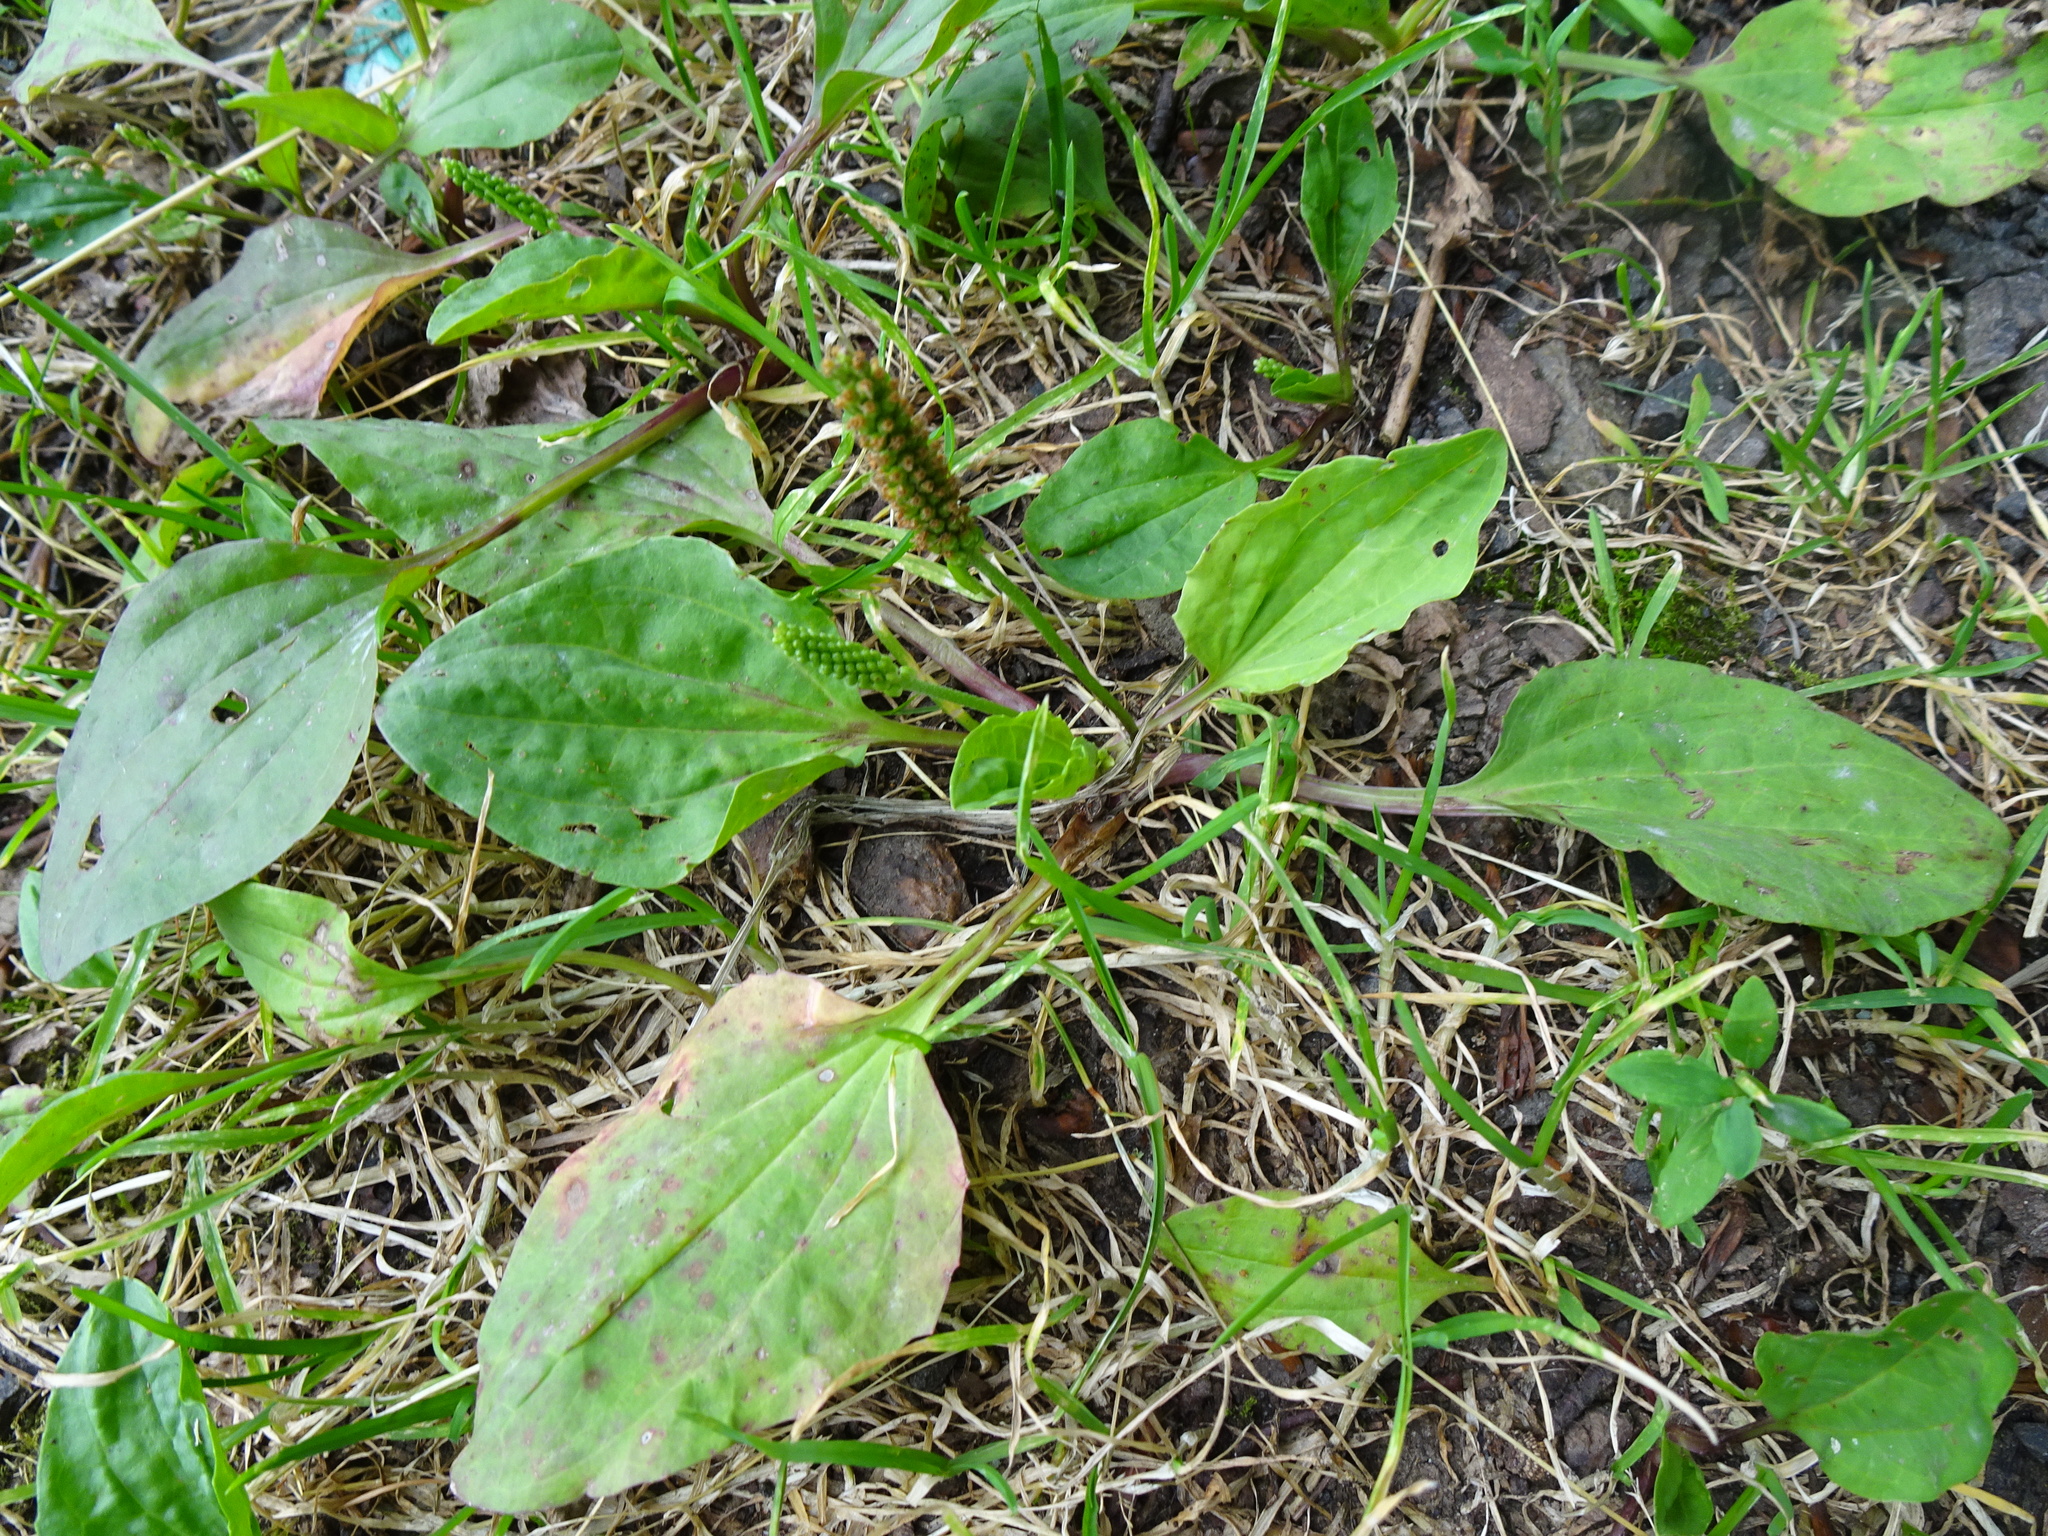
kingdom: Plantae
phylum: Tracheophyta
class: Magnoliopsida
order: Lamiales
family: Plantaginaceae
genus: Plantago
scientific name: Plantago major
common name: Common plantain
